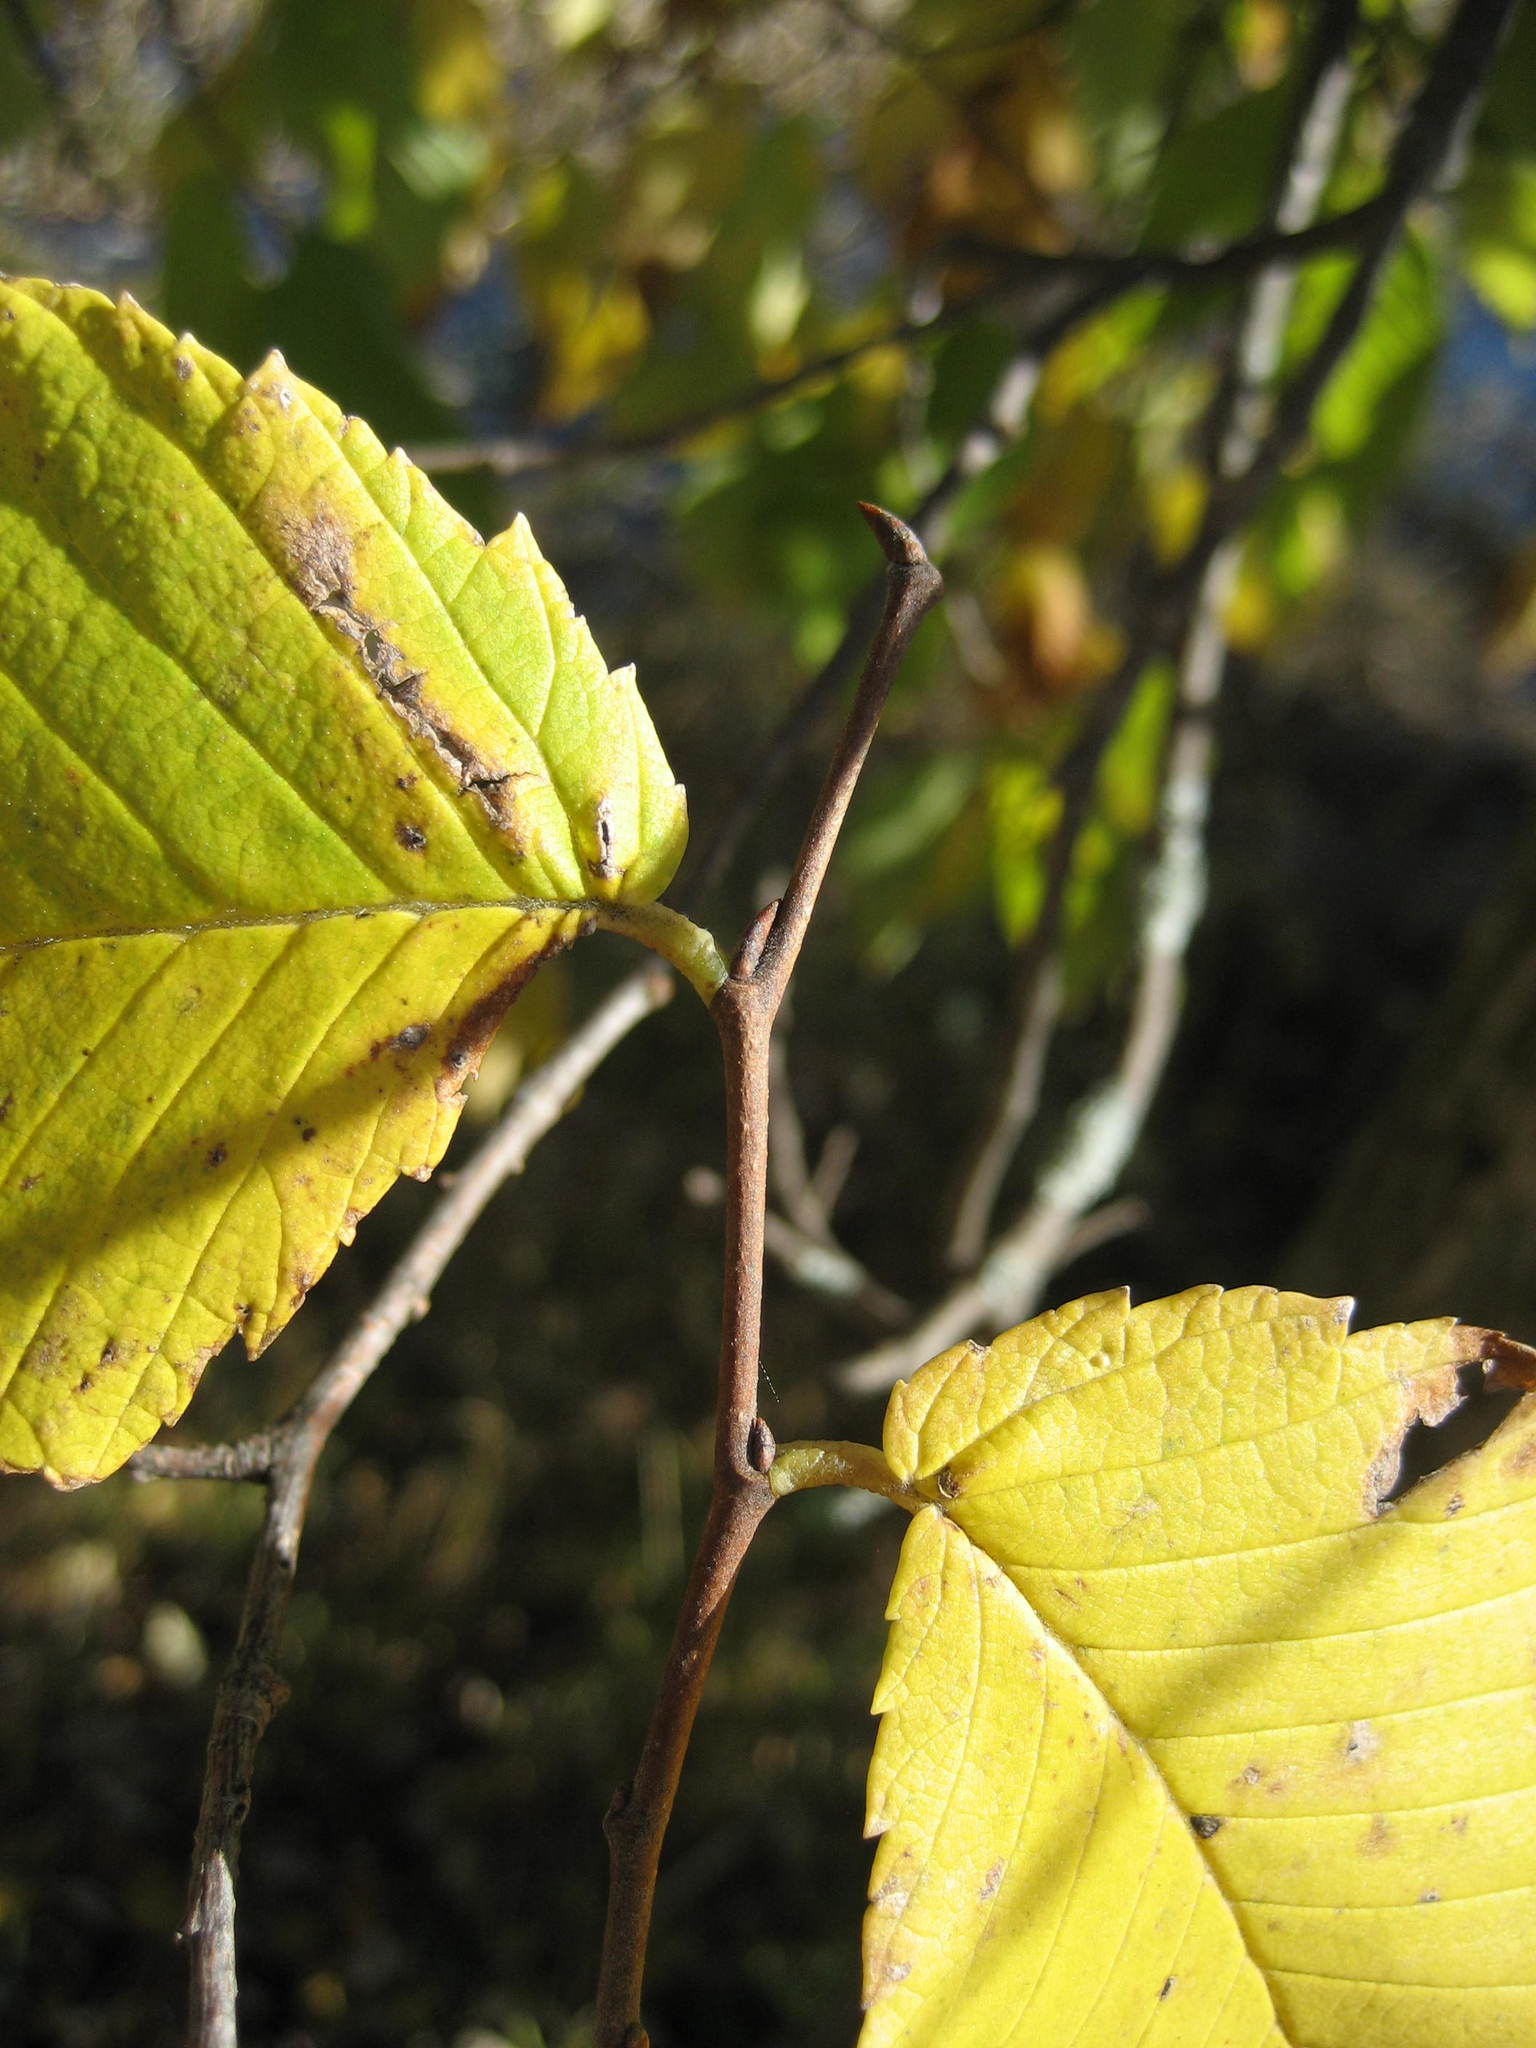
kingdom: Plantae
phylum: Tracheophyta
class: Magnoliopsida
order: Rosales
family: Ulmaceae
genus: Ulmus
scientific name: Ulmus americana
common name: American elm
